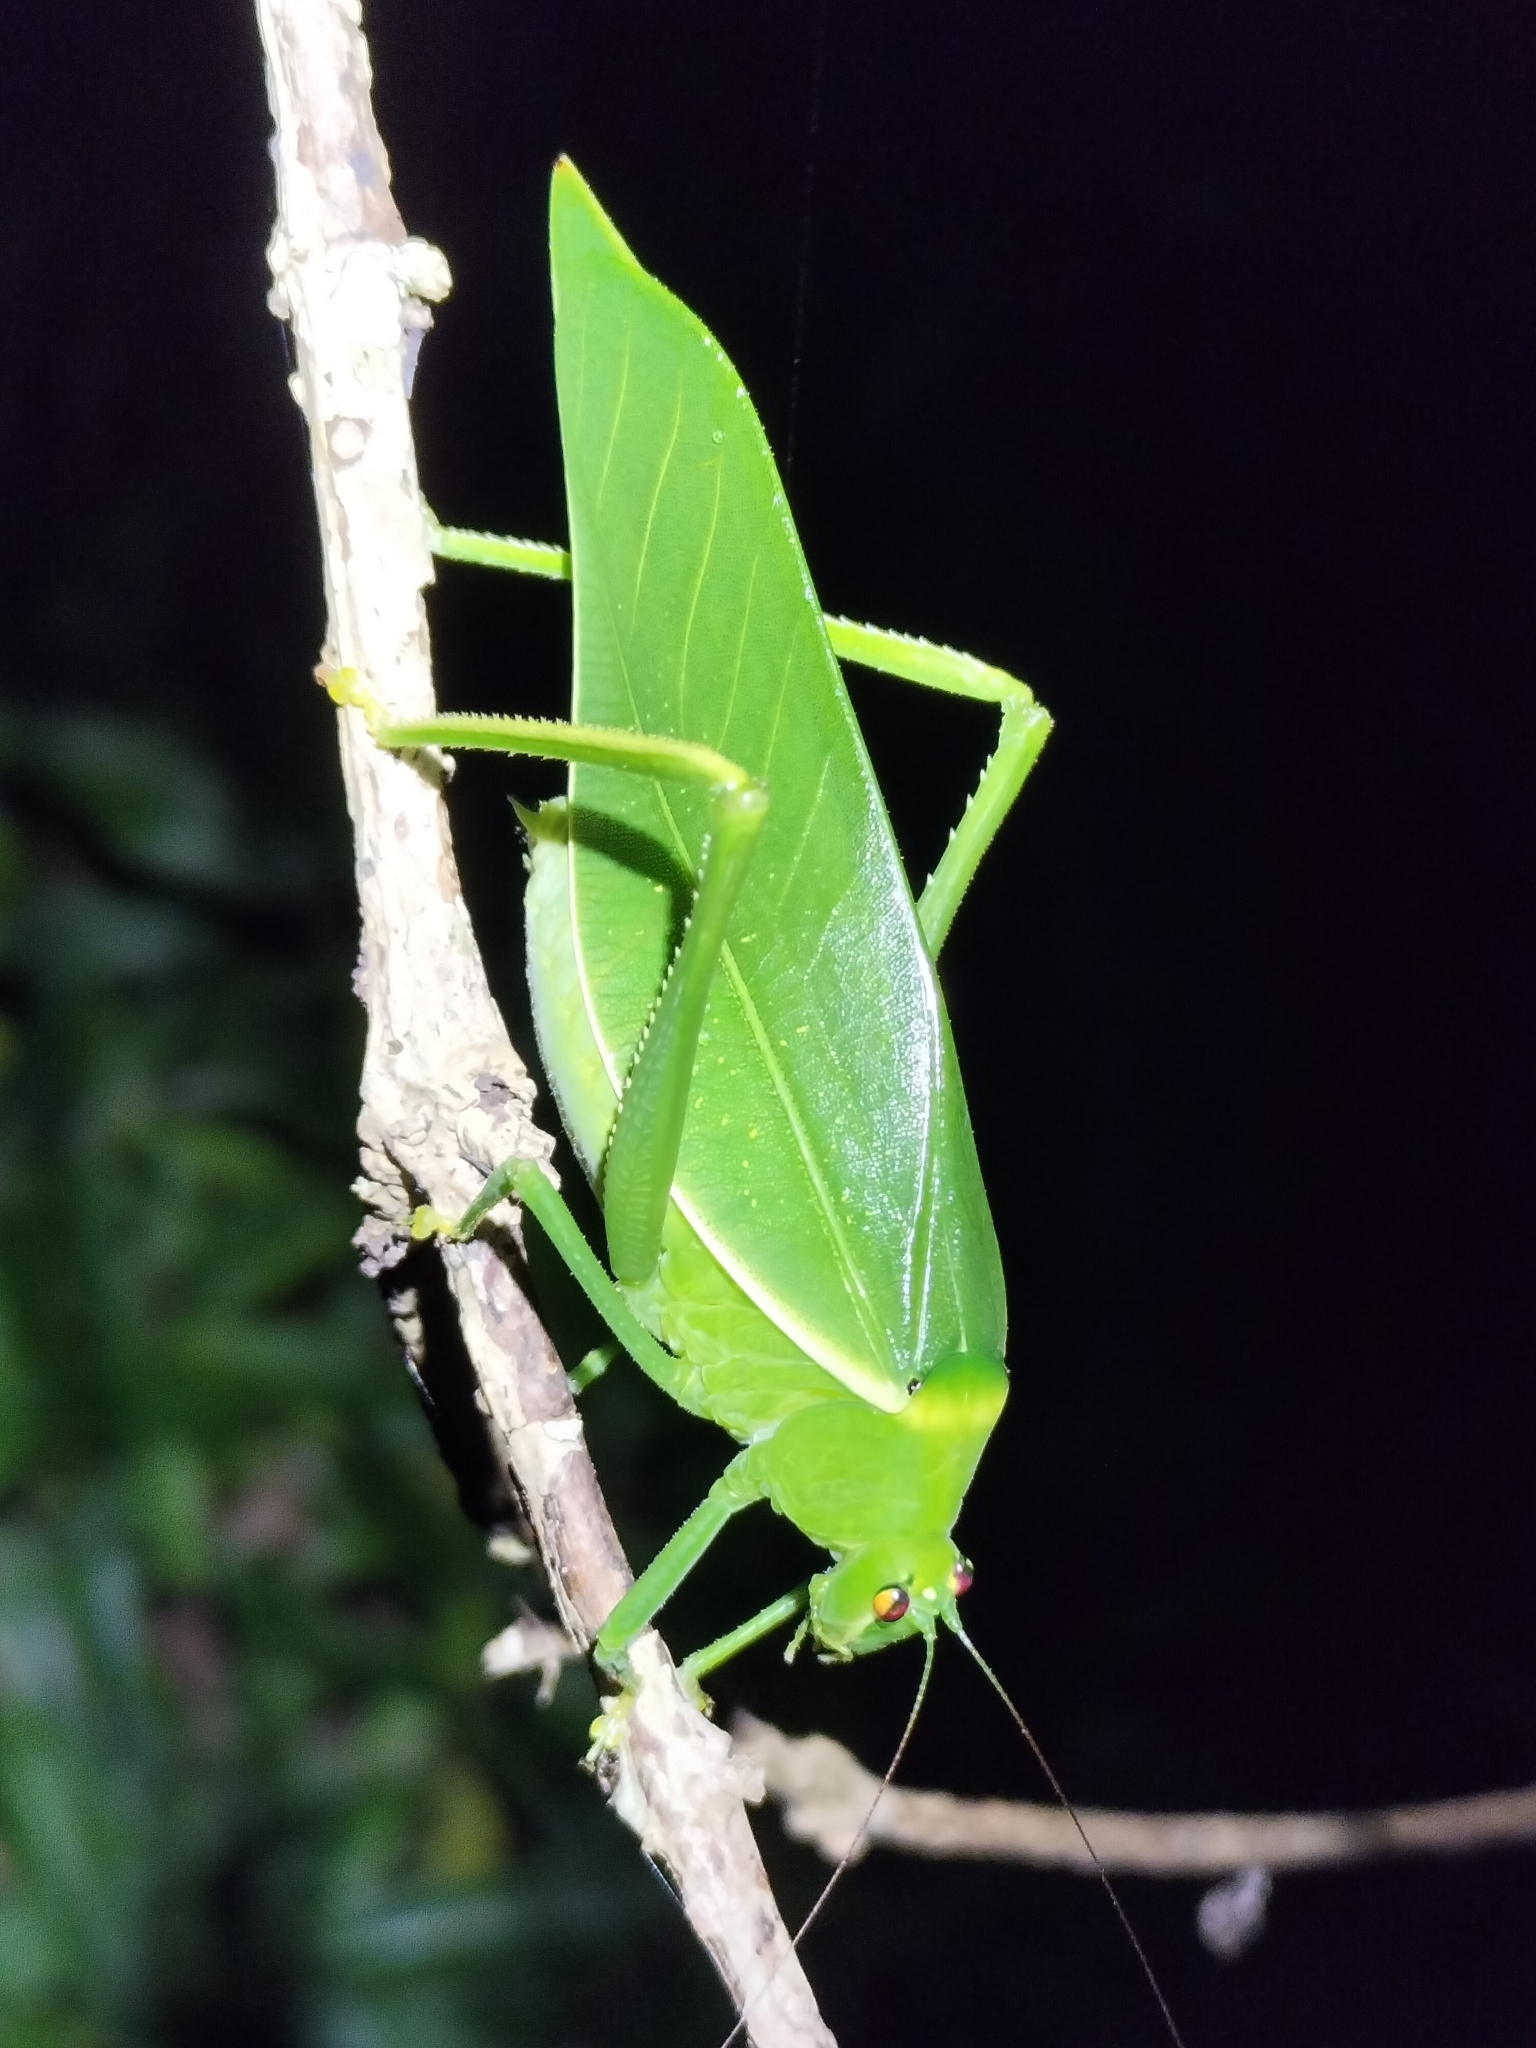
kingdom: Animalia
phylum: Arthropoda
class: Insecta
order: Orthoptera
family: Tettigoniidae
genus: Paracaedicia
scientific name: Paracaedicia serrata
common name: Serrated bush katydid
